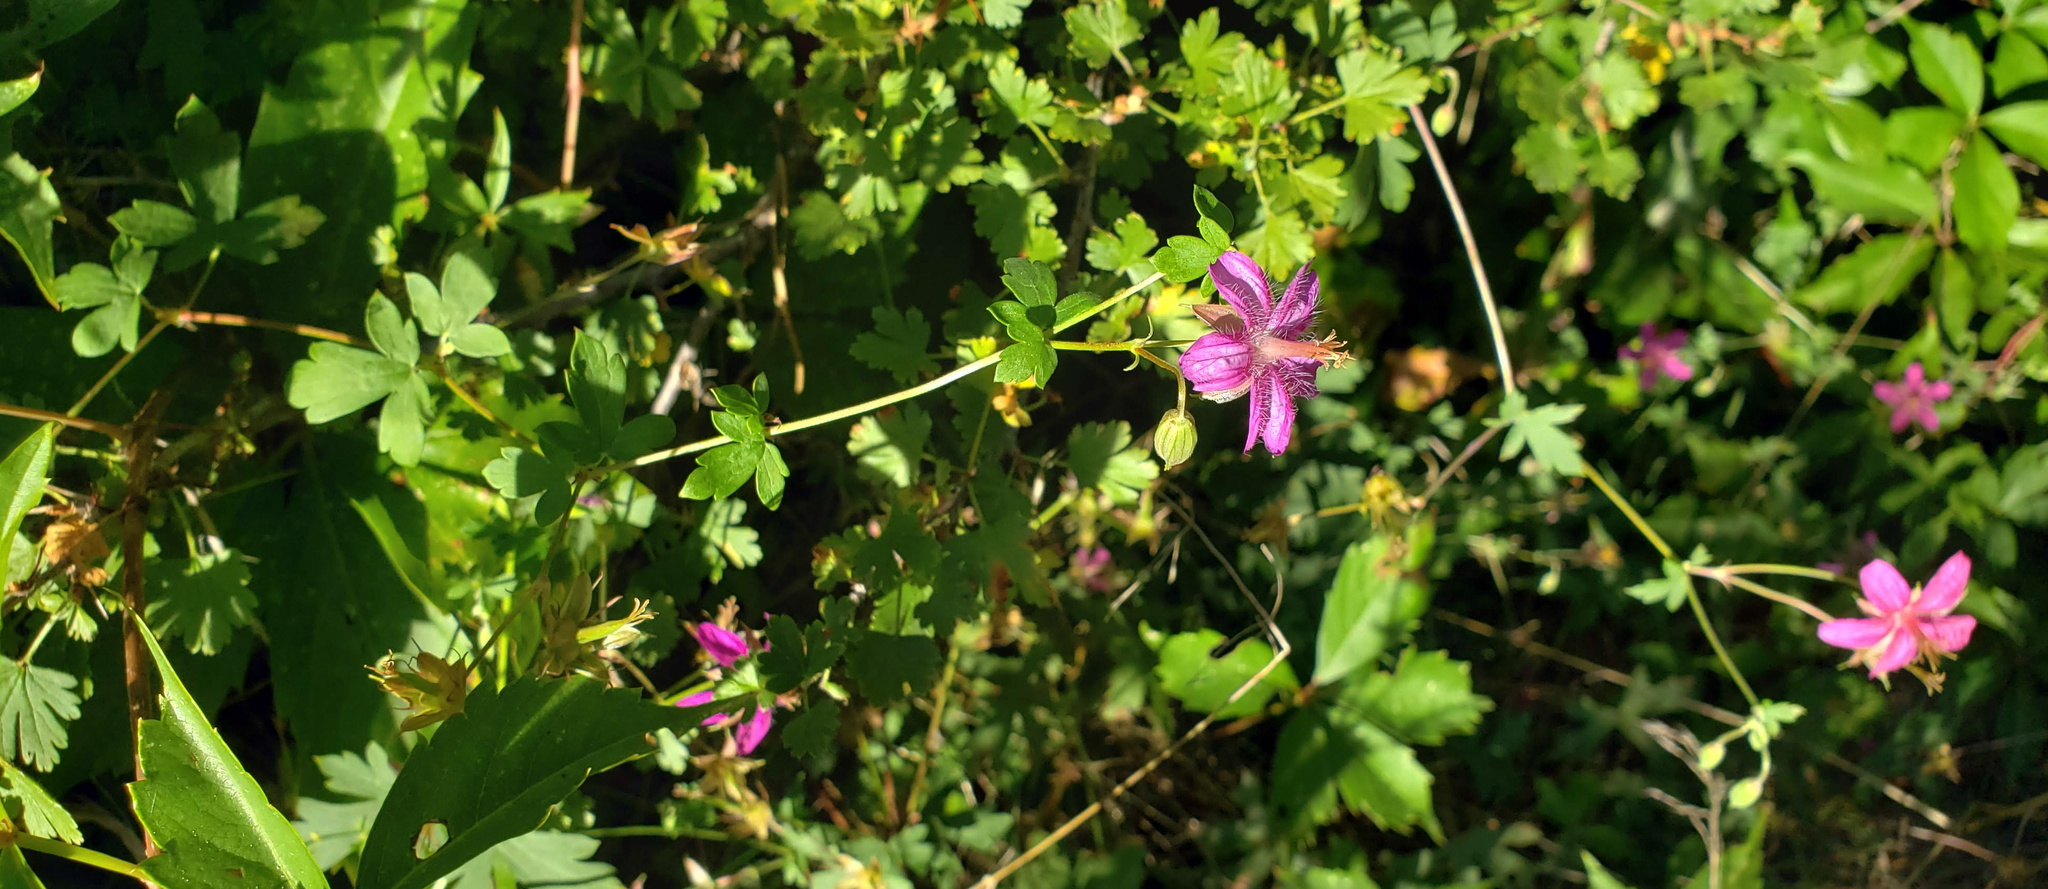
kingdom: Plantae
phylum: Tracheophyta
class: Magnoliopsida
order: Geraniales
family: Geraniaceae
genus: Geranium
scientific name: Geranium caespitosum
